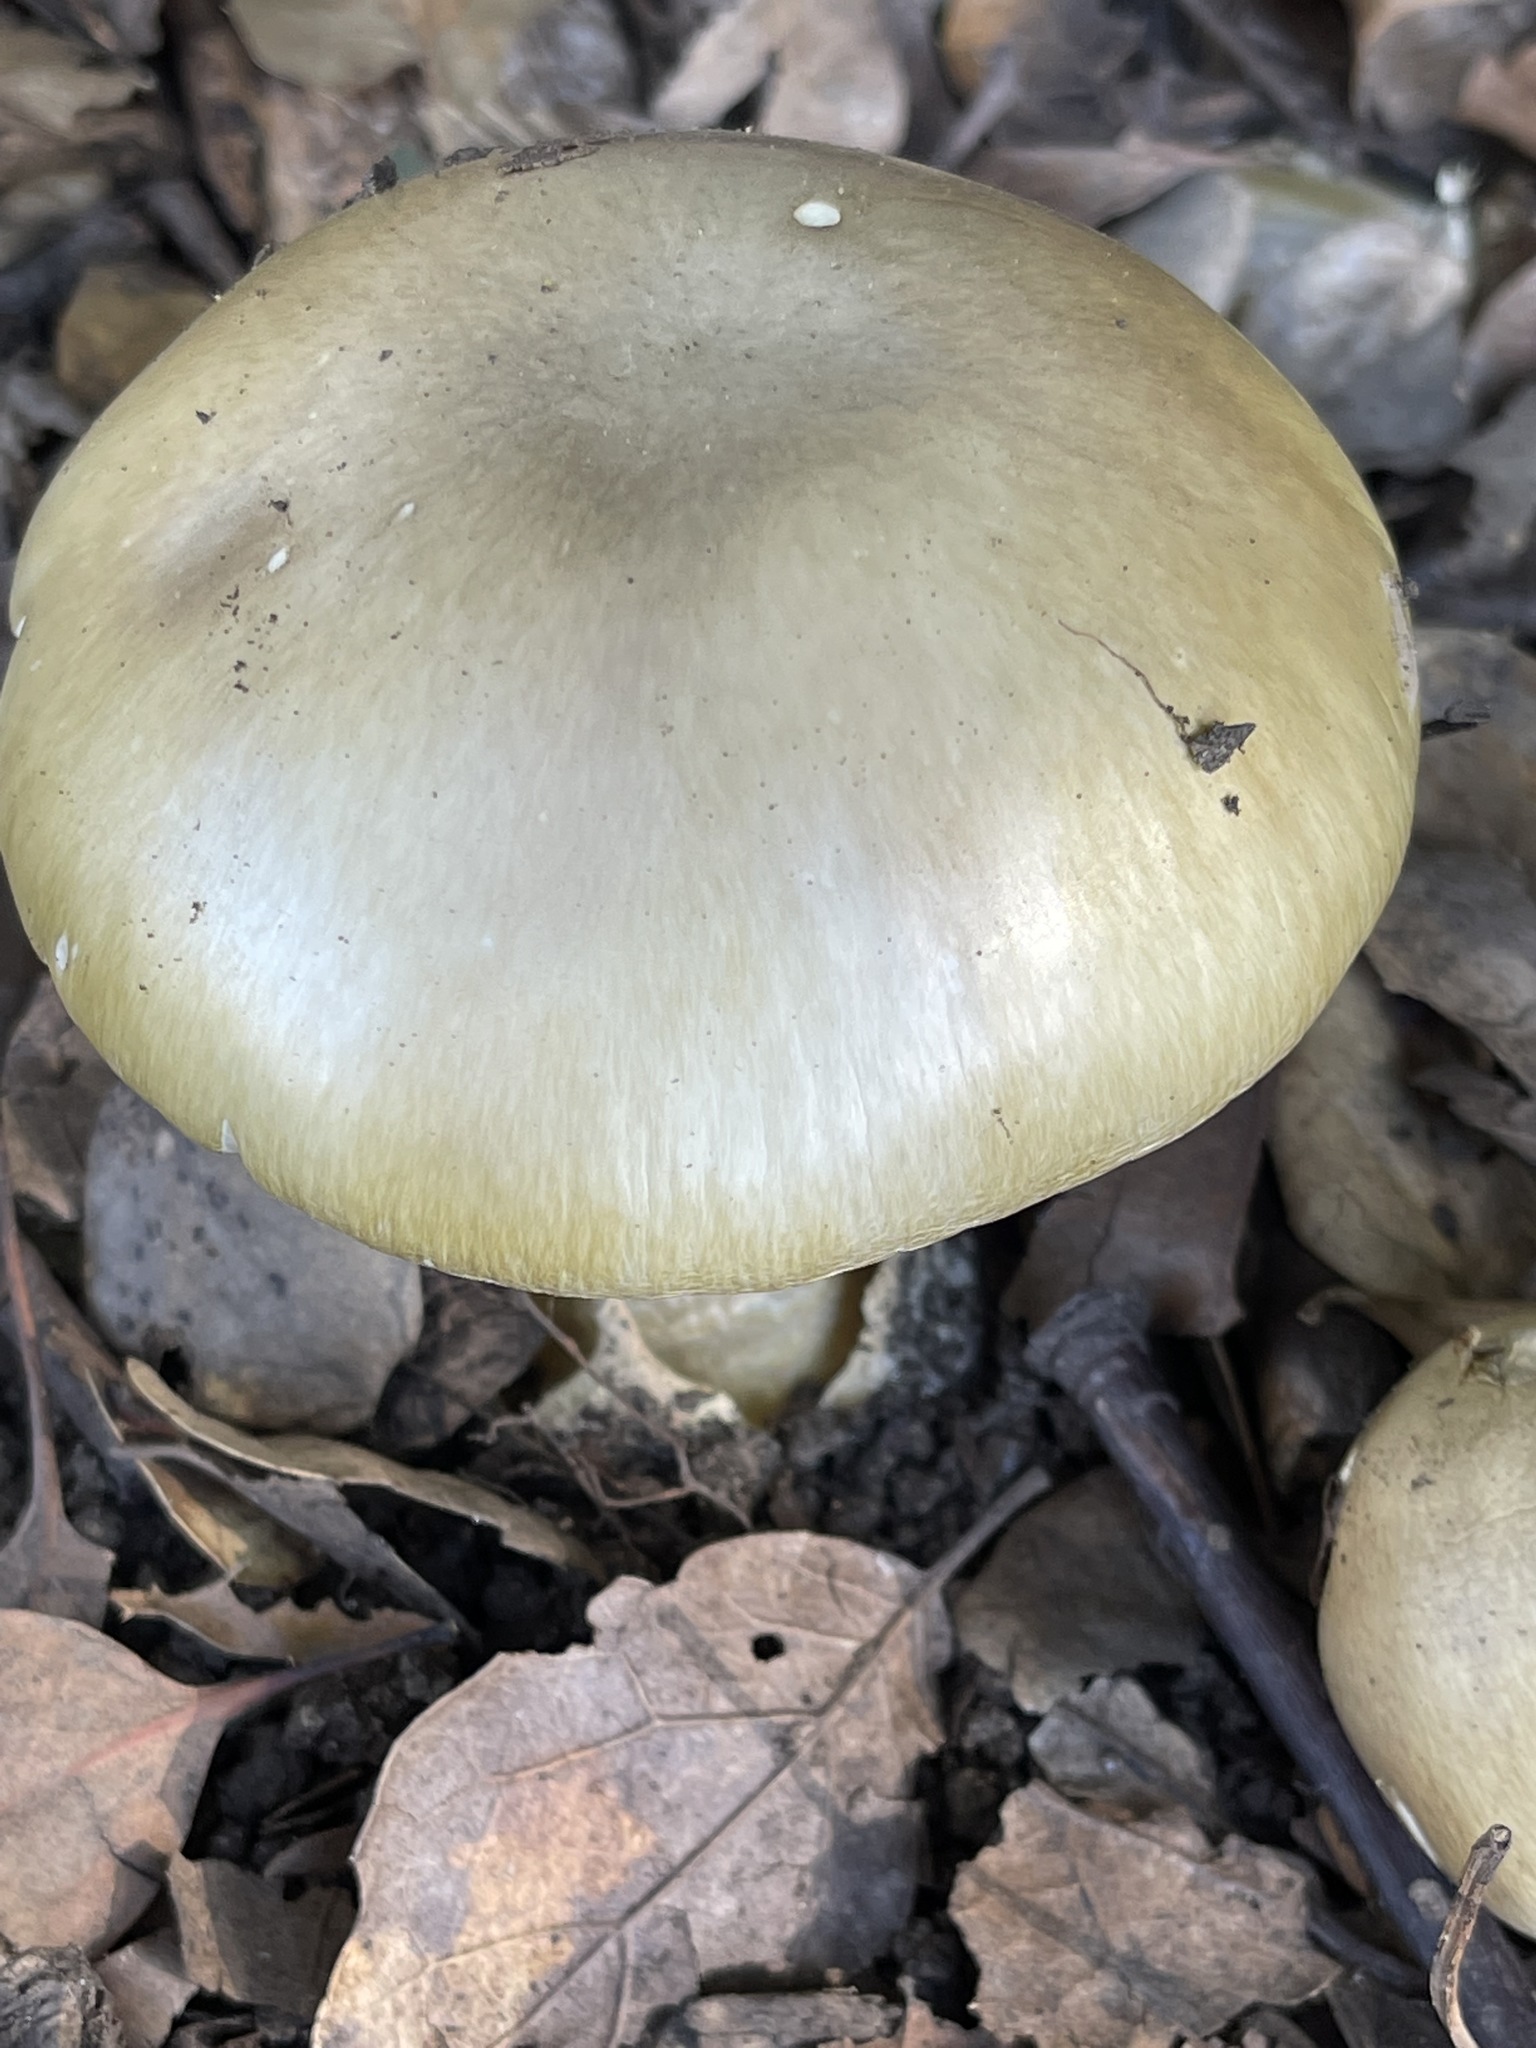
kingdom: Fungi
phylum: Basidiomycota
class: Agaricomycetes
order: Agaricales
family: Amanitaceae
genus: Amanita
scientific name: Amanita phalloides
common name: Death cap
